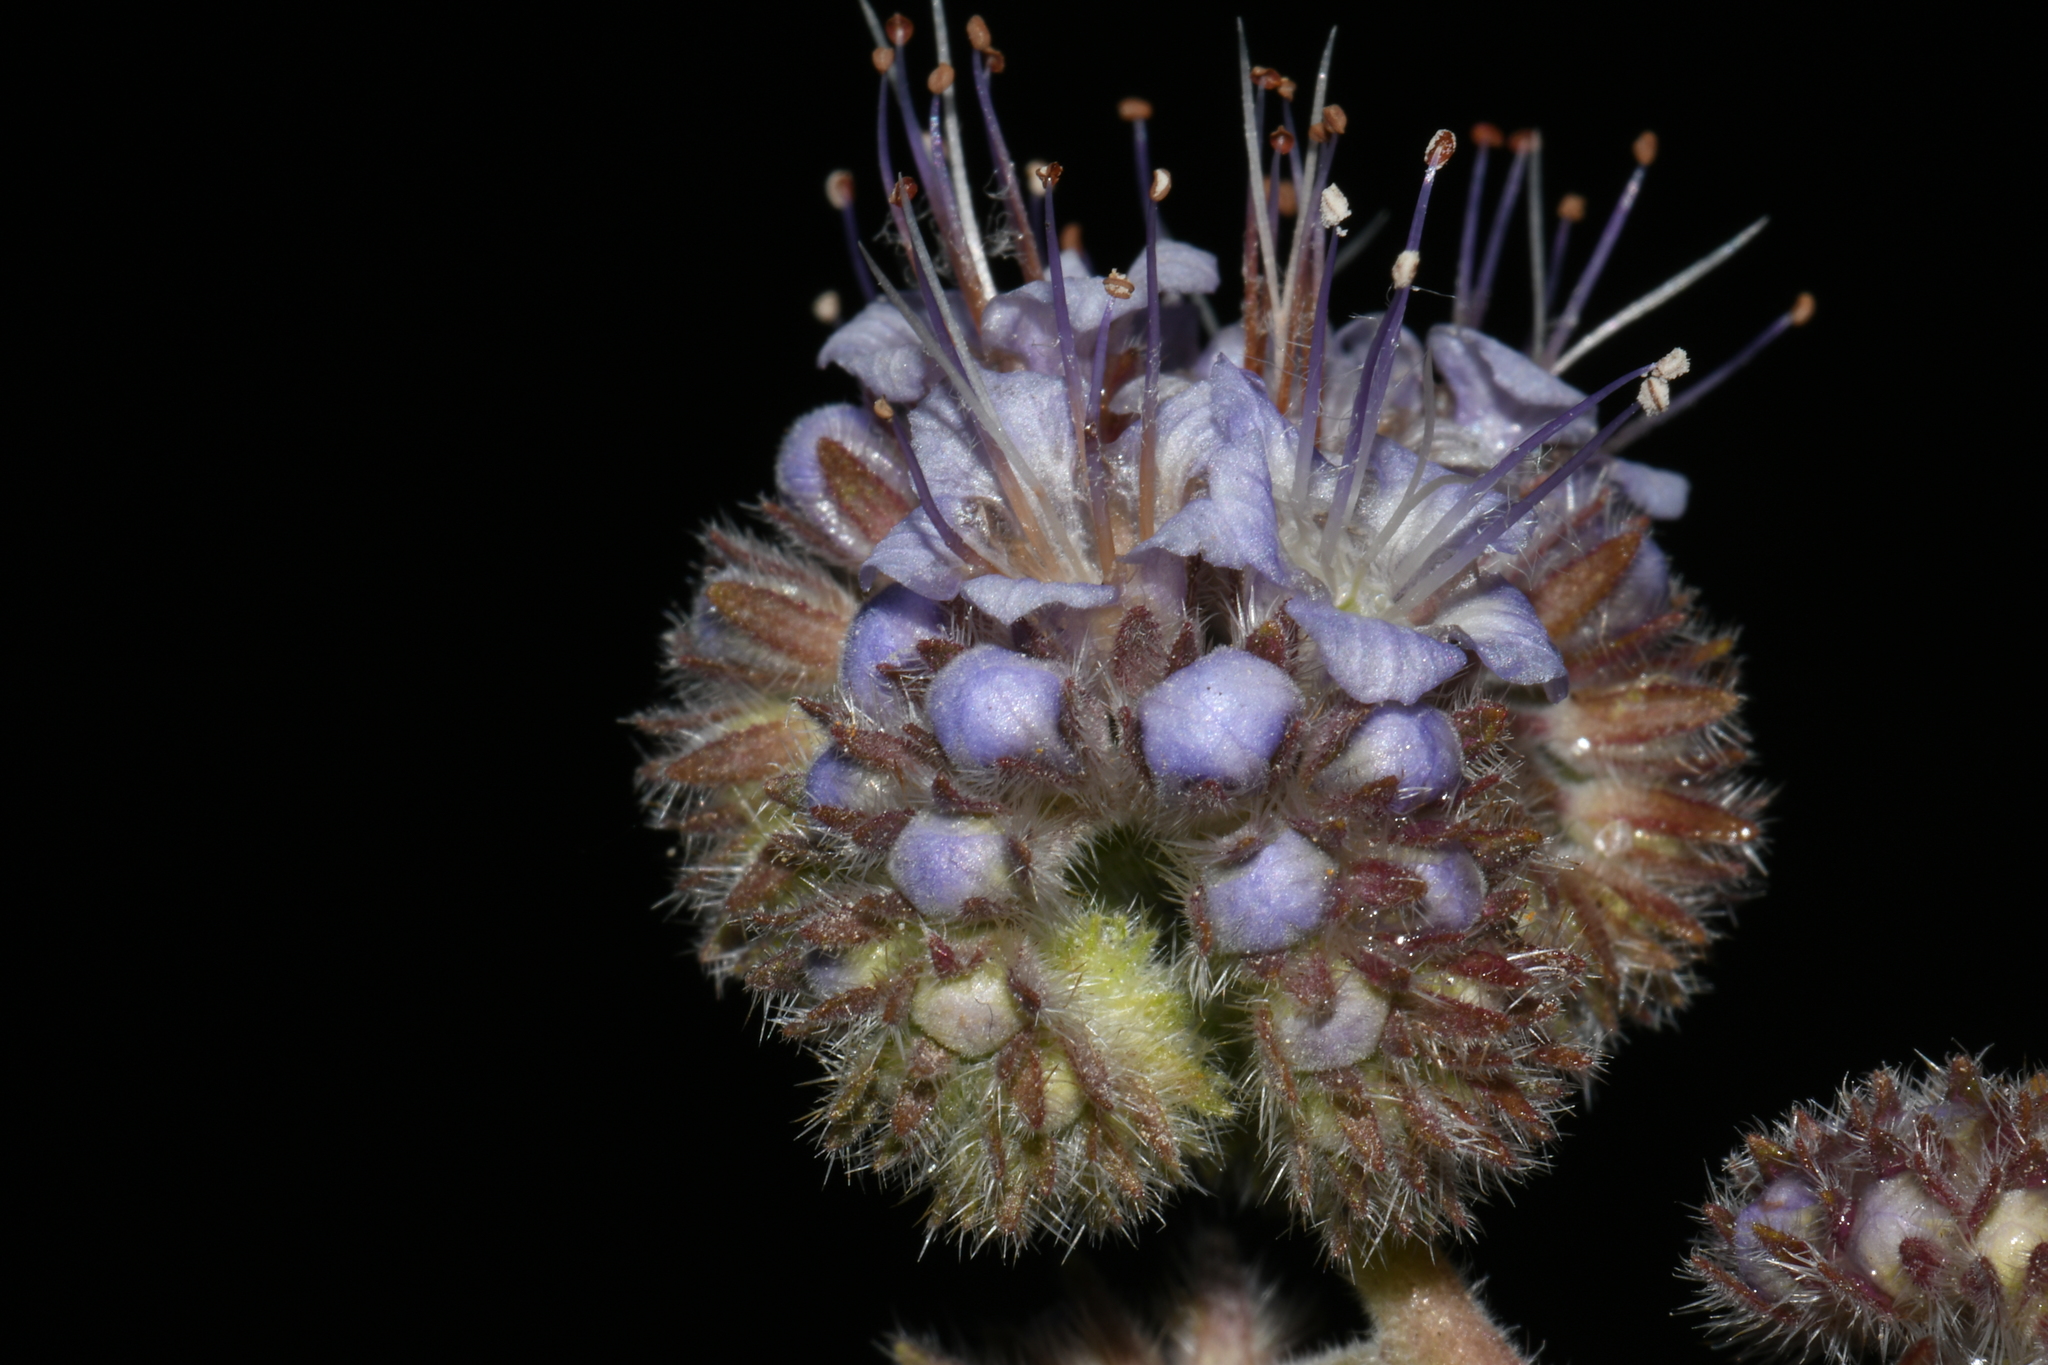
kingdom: Plantae
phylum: Tracheophyta
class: Magnoliopsida
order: Boraginales
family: Hydrophyllaceae
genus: Phacelia
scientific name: Phacelia hastata
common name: Silver-leaved phacelia
